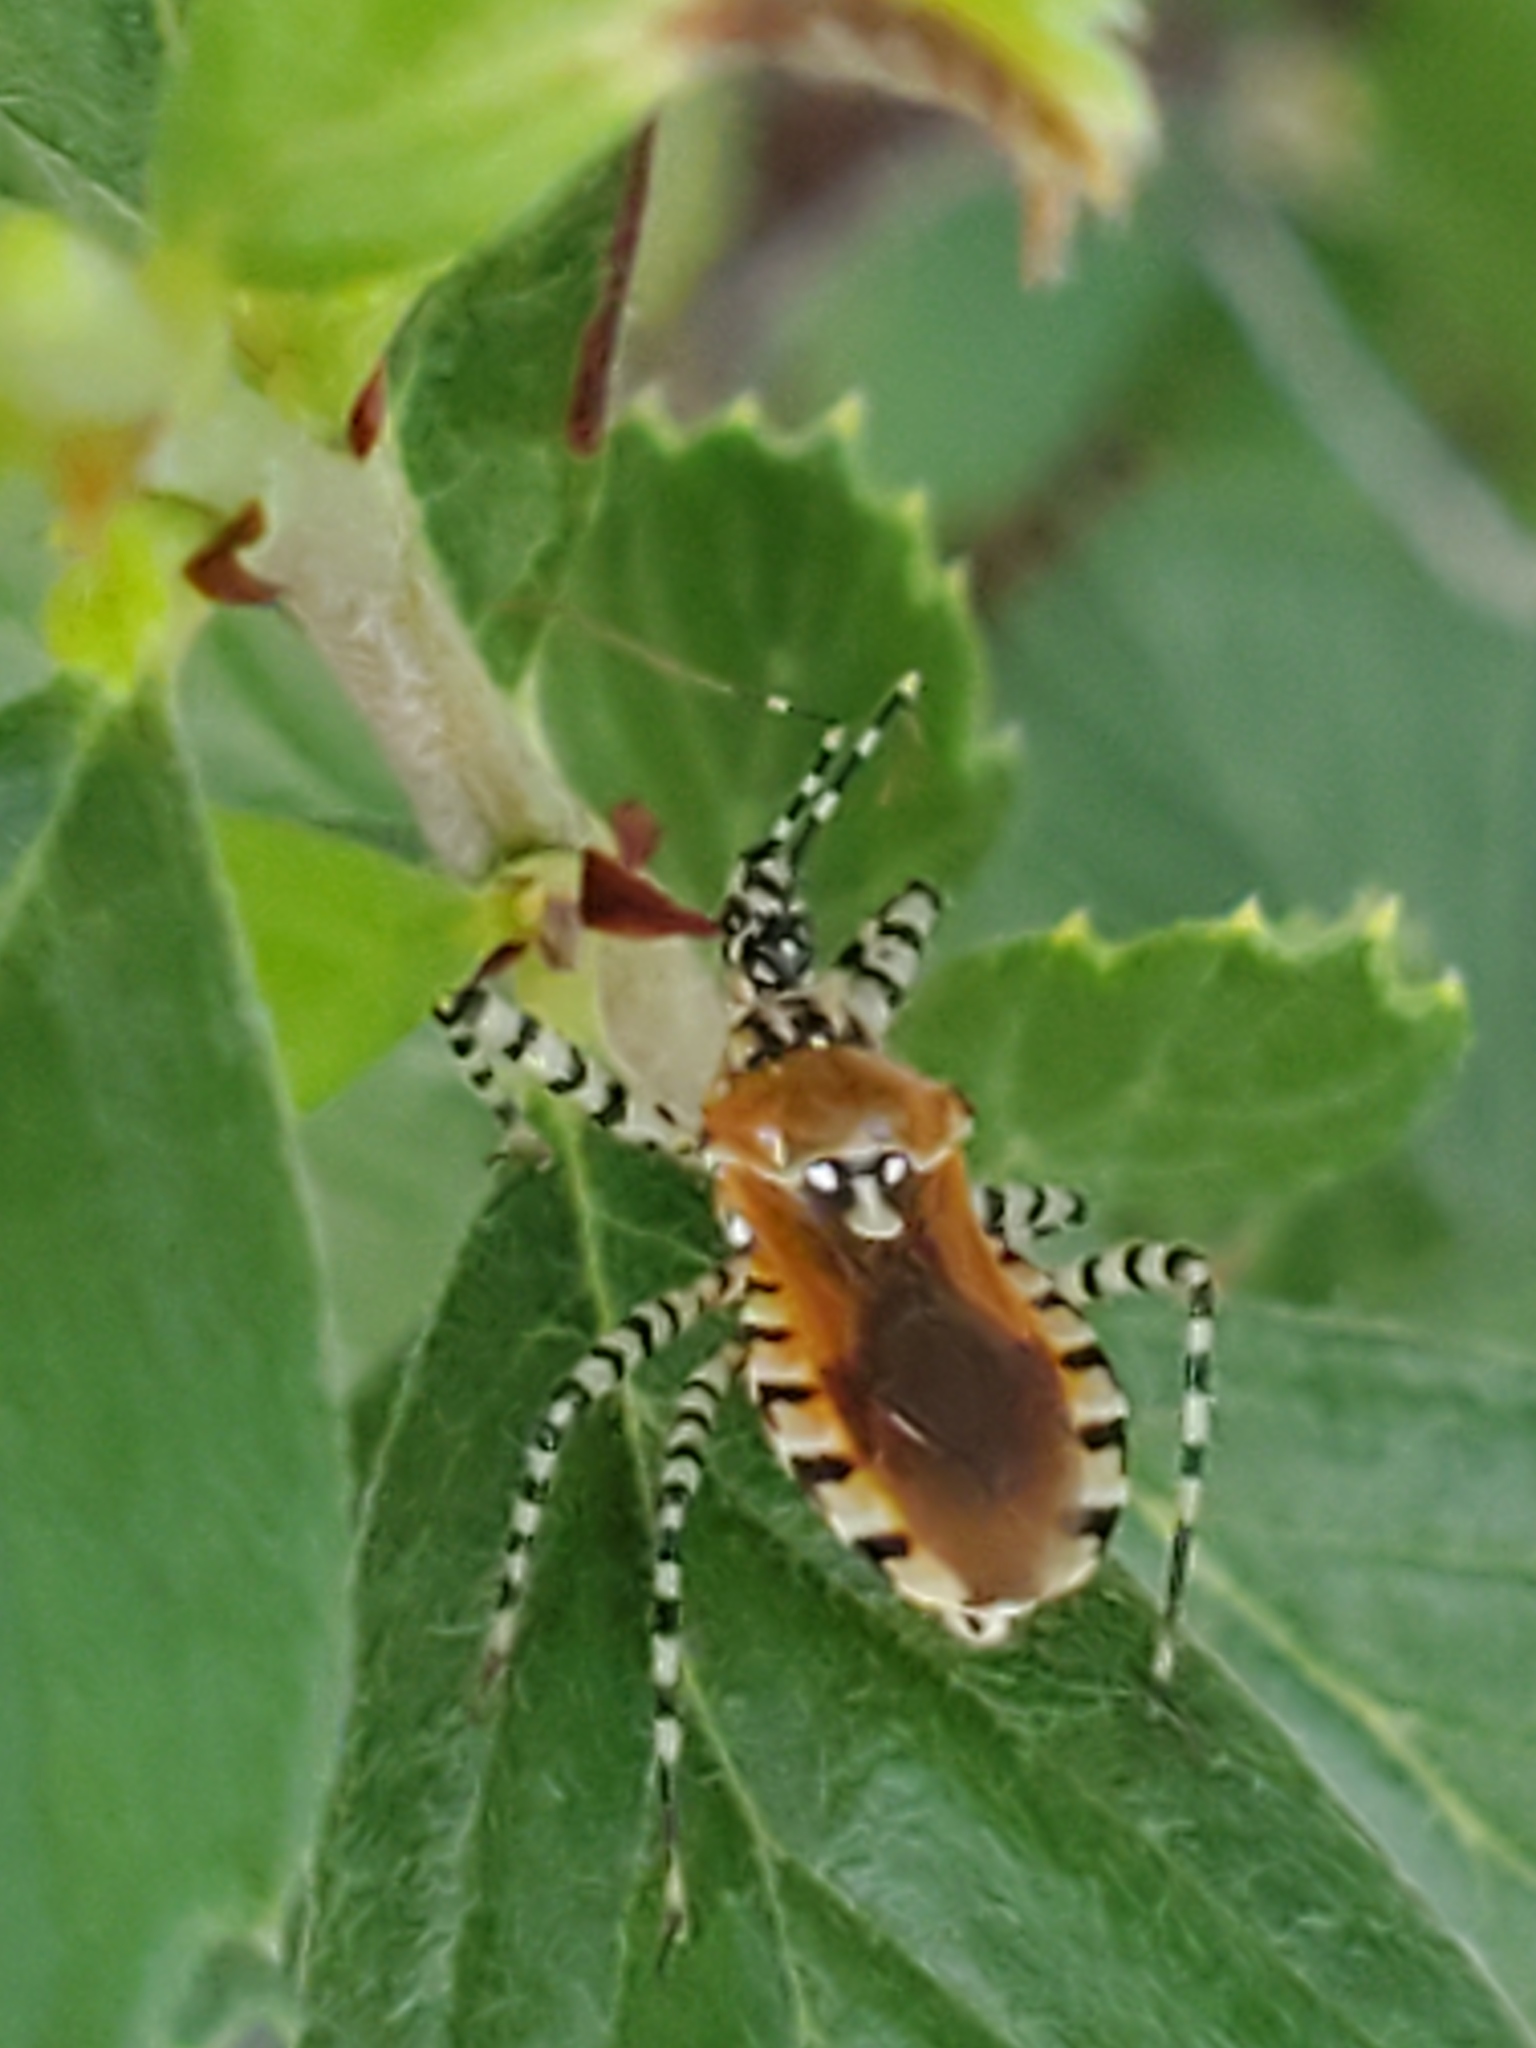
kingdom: Animalia
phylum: Arthropoda
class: Insecta
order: Hemiptera
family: Reduviidae
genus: Pselliopus
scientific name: Pselliopus cinctus
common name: Ringed assassin bug
